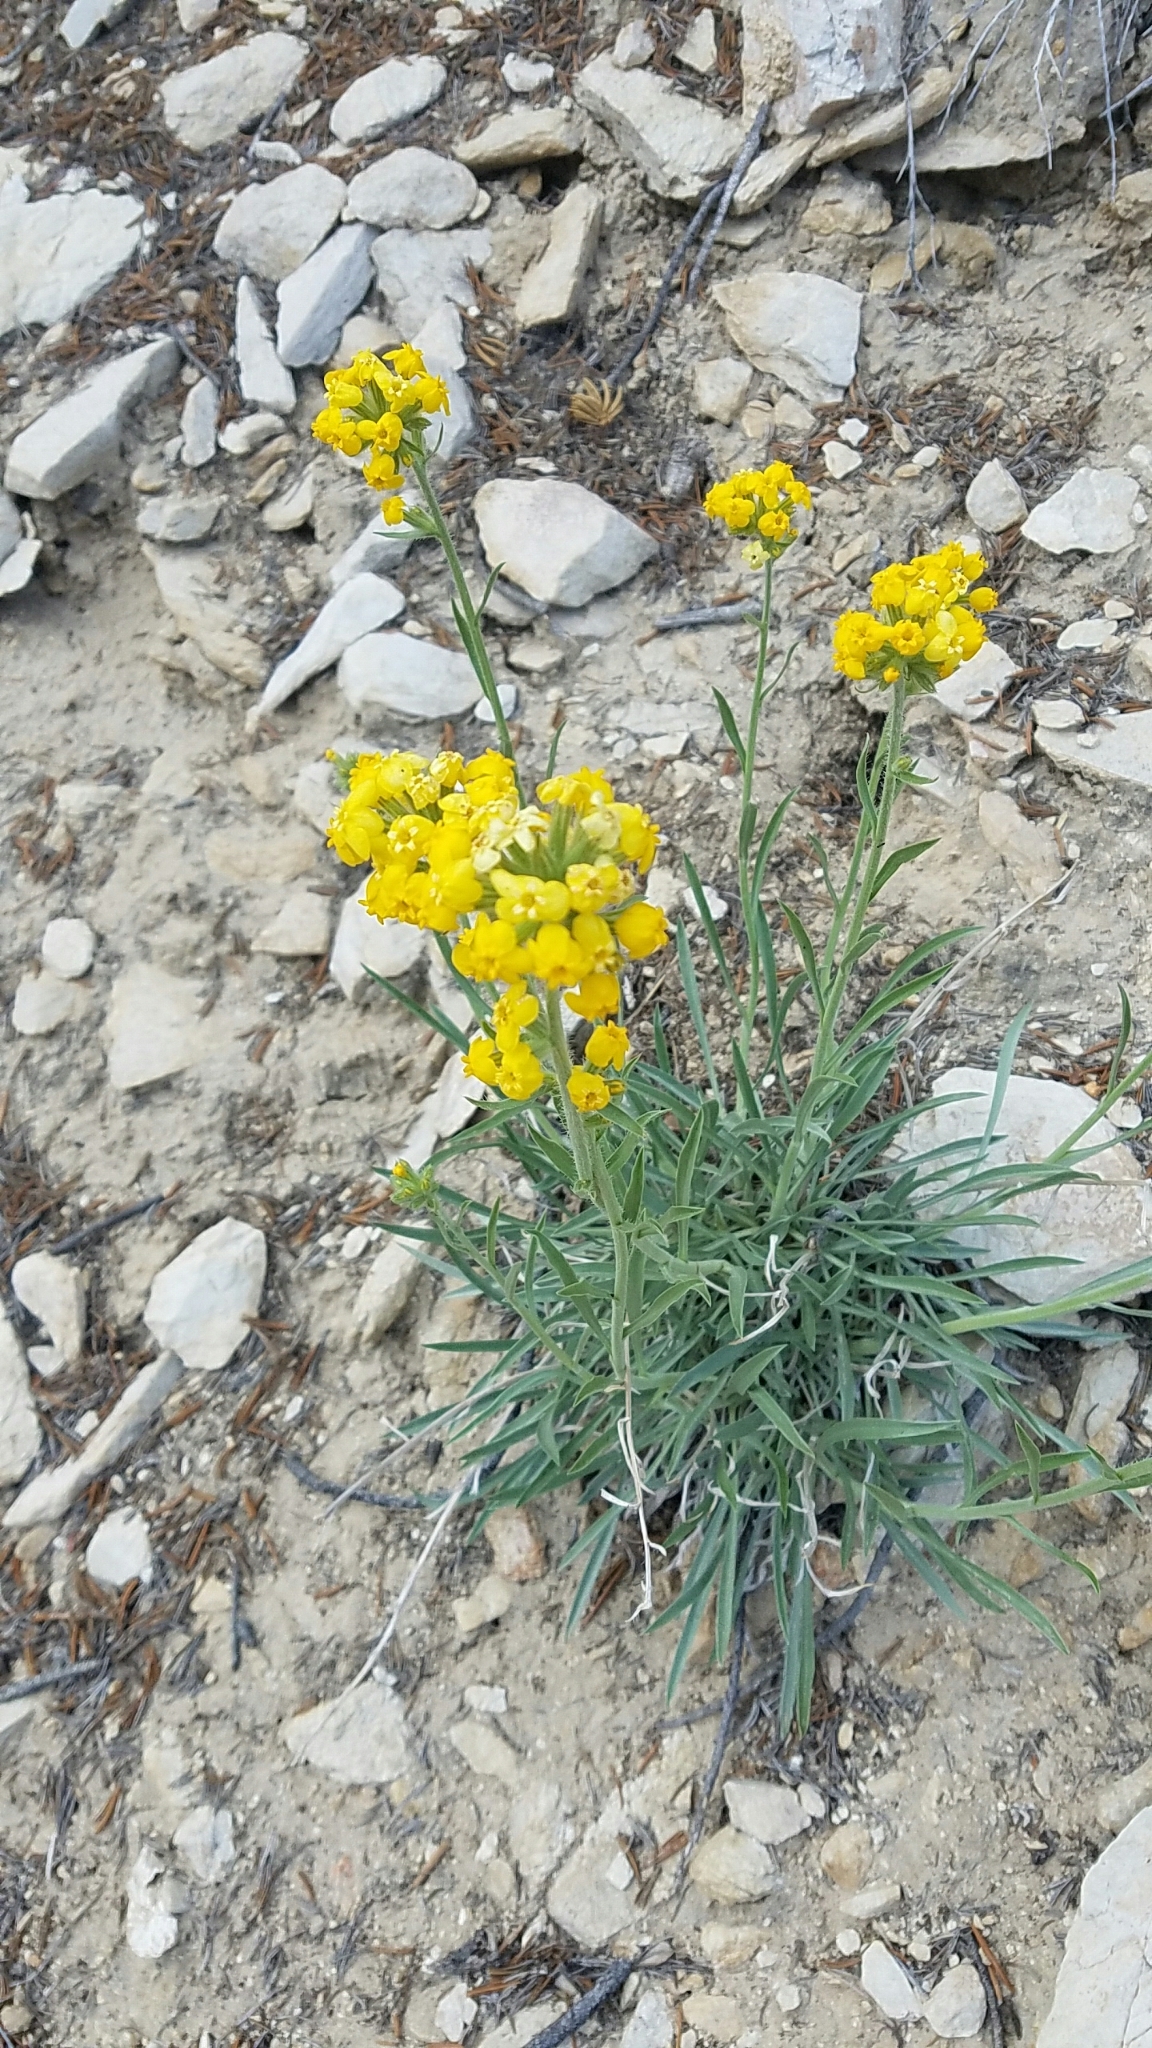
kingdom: Plantae
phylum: Tracheophyta
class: Magnoliopsida
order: Boraginales
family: Boraginaceae
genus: Oreocarya
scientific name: Oreocarya confertiflora
